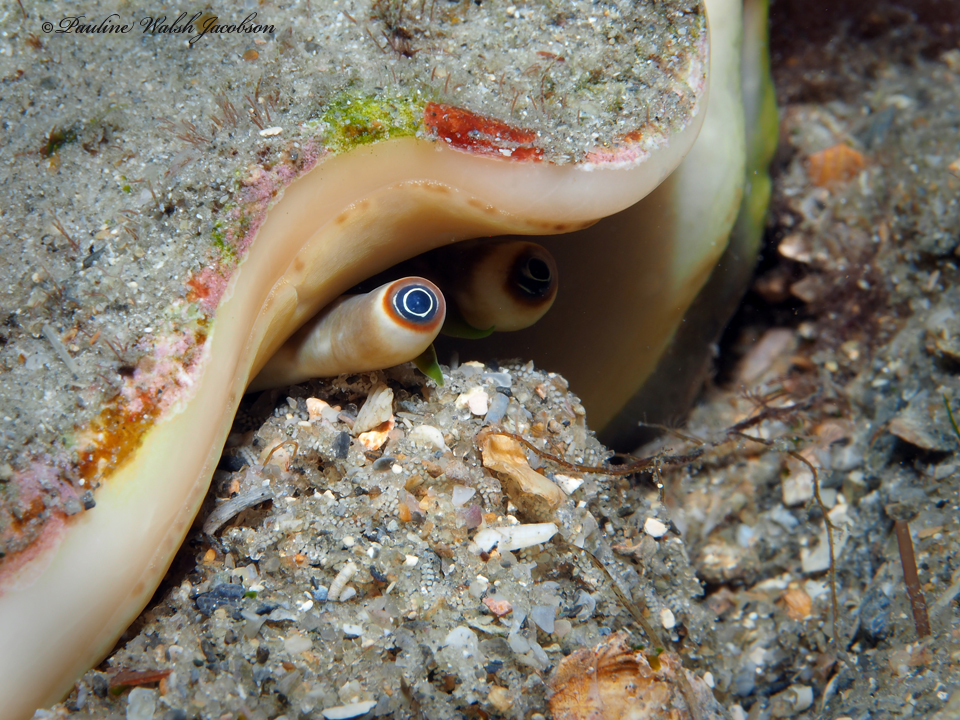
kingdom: Animalia
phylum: Mollusca
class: Gastropoda
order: Littorinimorpha
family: Strombidae
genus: Macrostrombus
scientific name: Macrostrombus costatus
